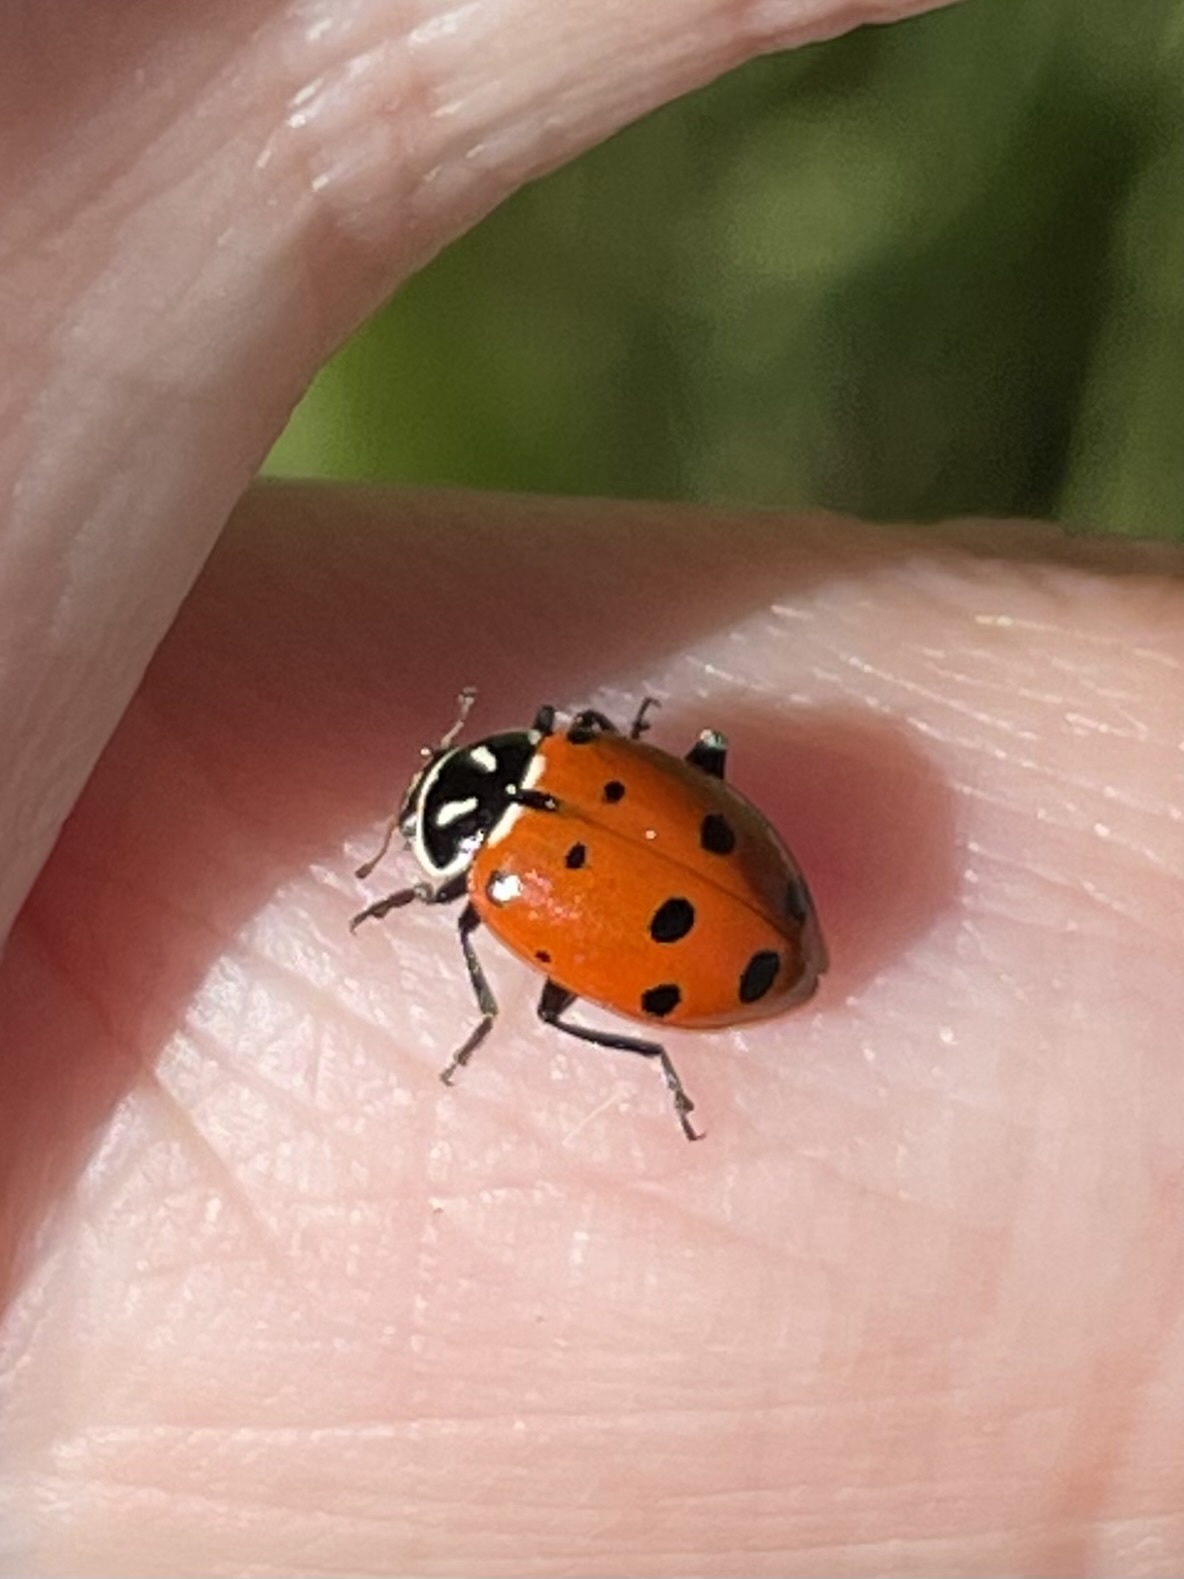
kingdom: Animalia
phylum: Arthropoda
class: Insecta
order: Coleoptera
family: Coccinellidae
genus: Hippodamia
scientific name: Hippodamia convergens
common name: Convergent lady beetle
